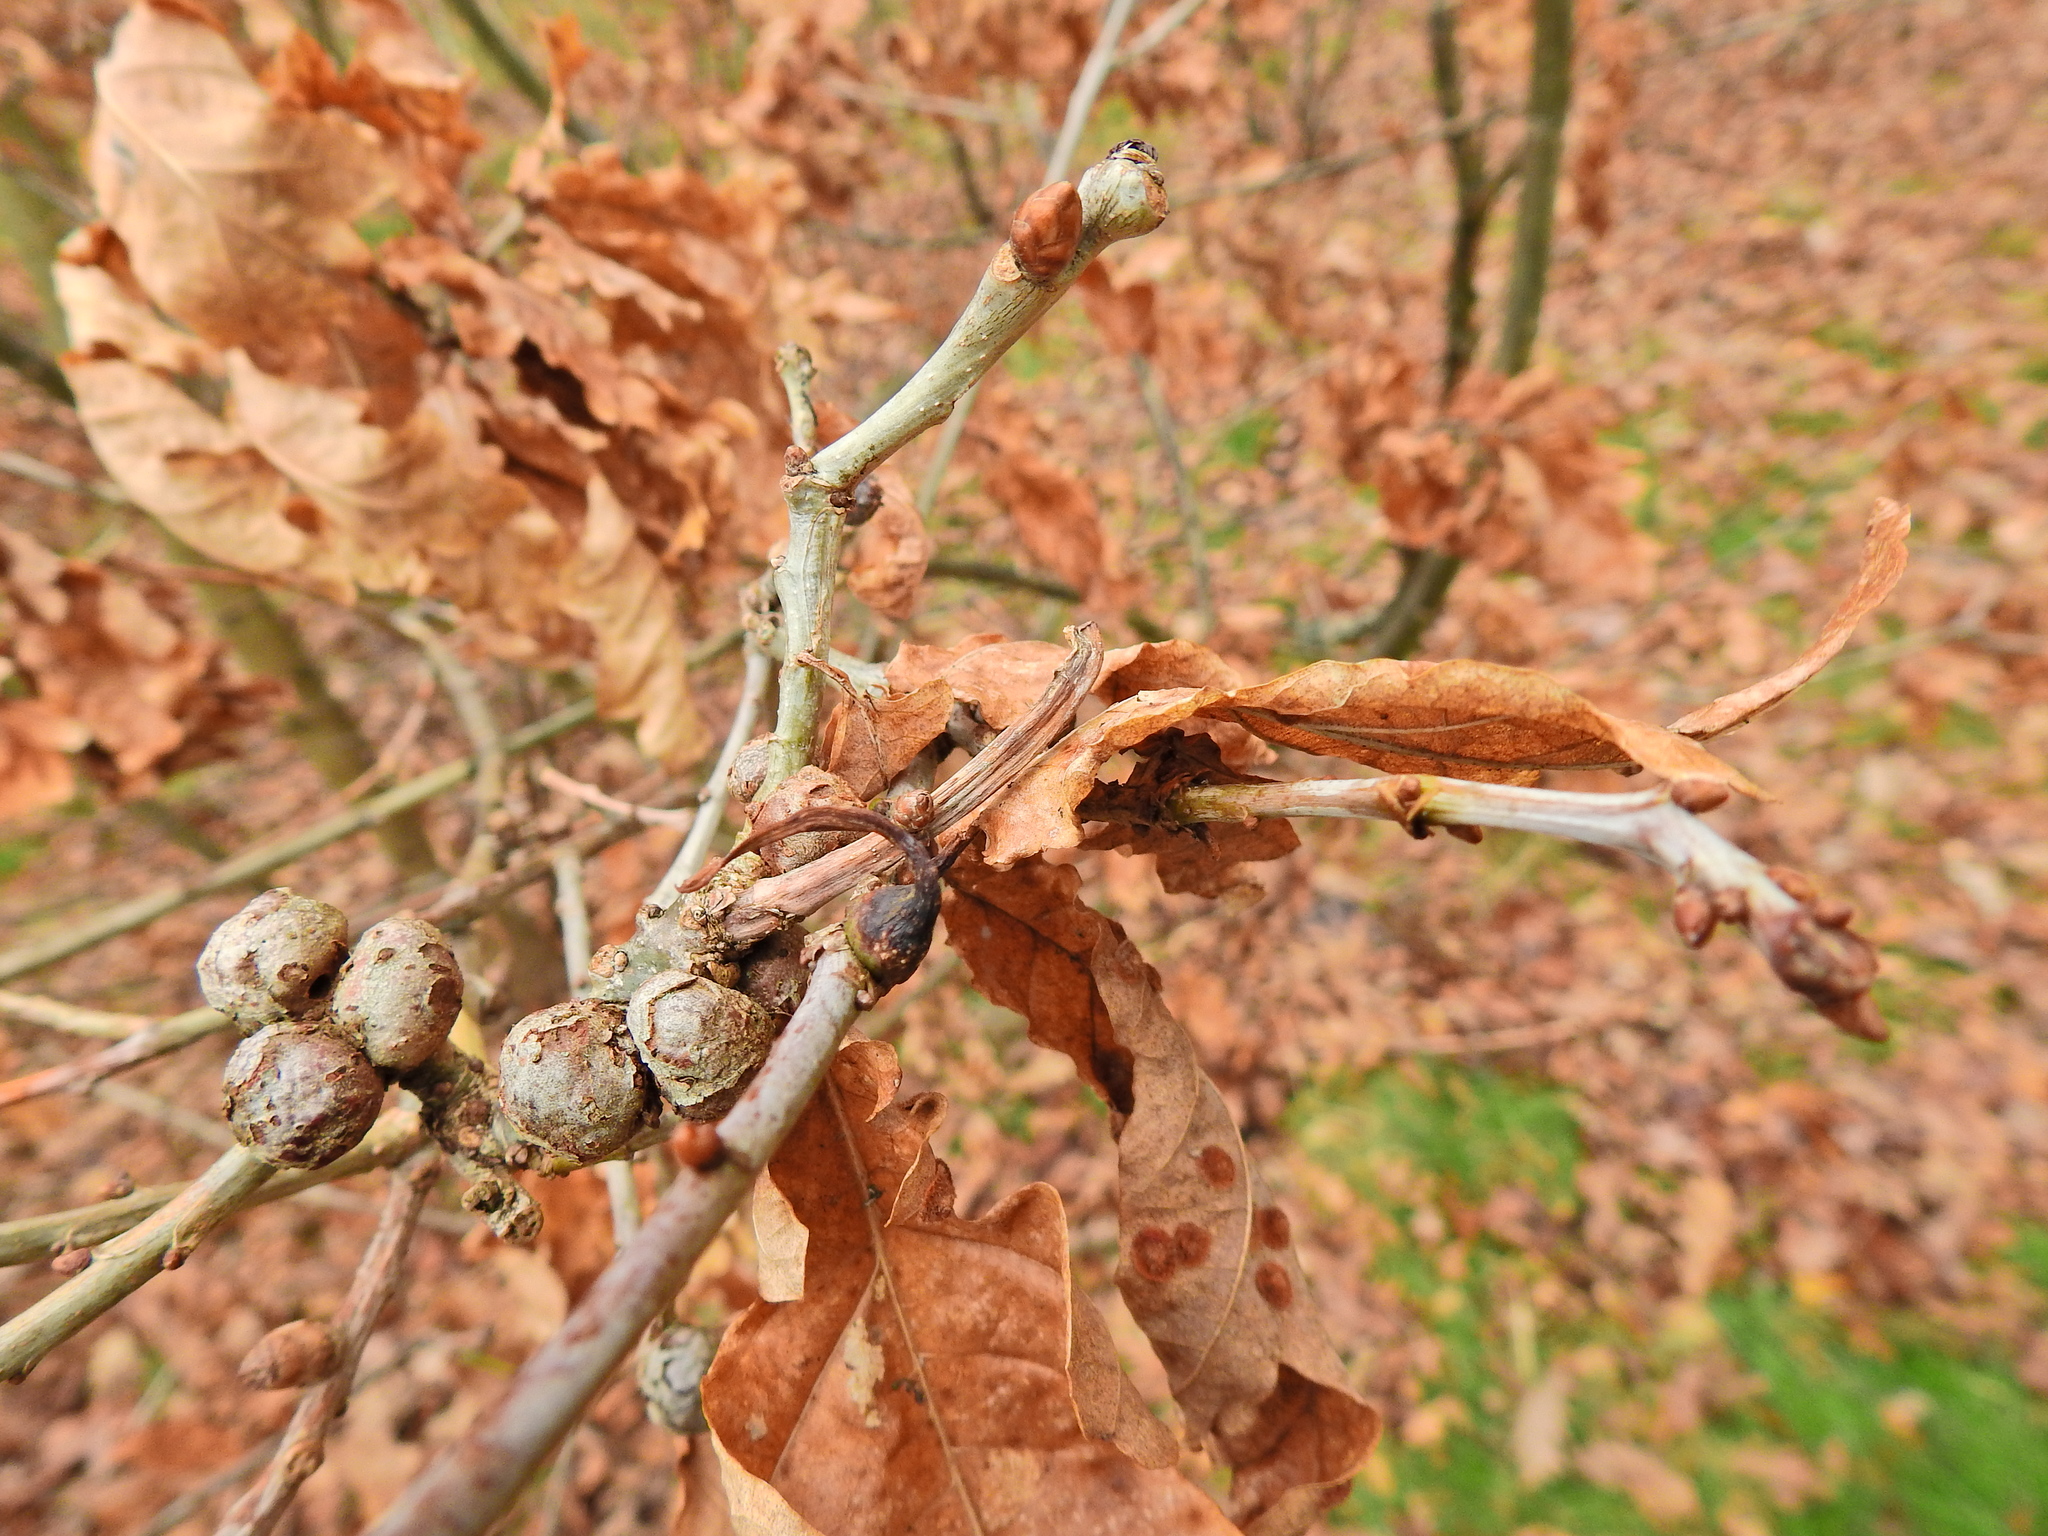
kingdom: Animalia
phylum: Arthropoda
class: Insecta
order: Hymenoptera
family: Cynipidae
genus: Andricus
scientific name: Andricus aries
